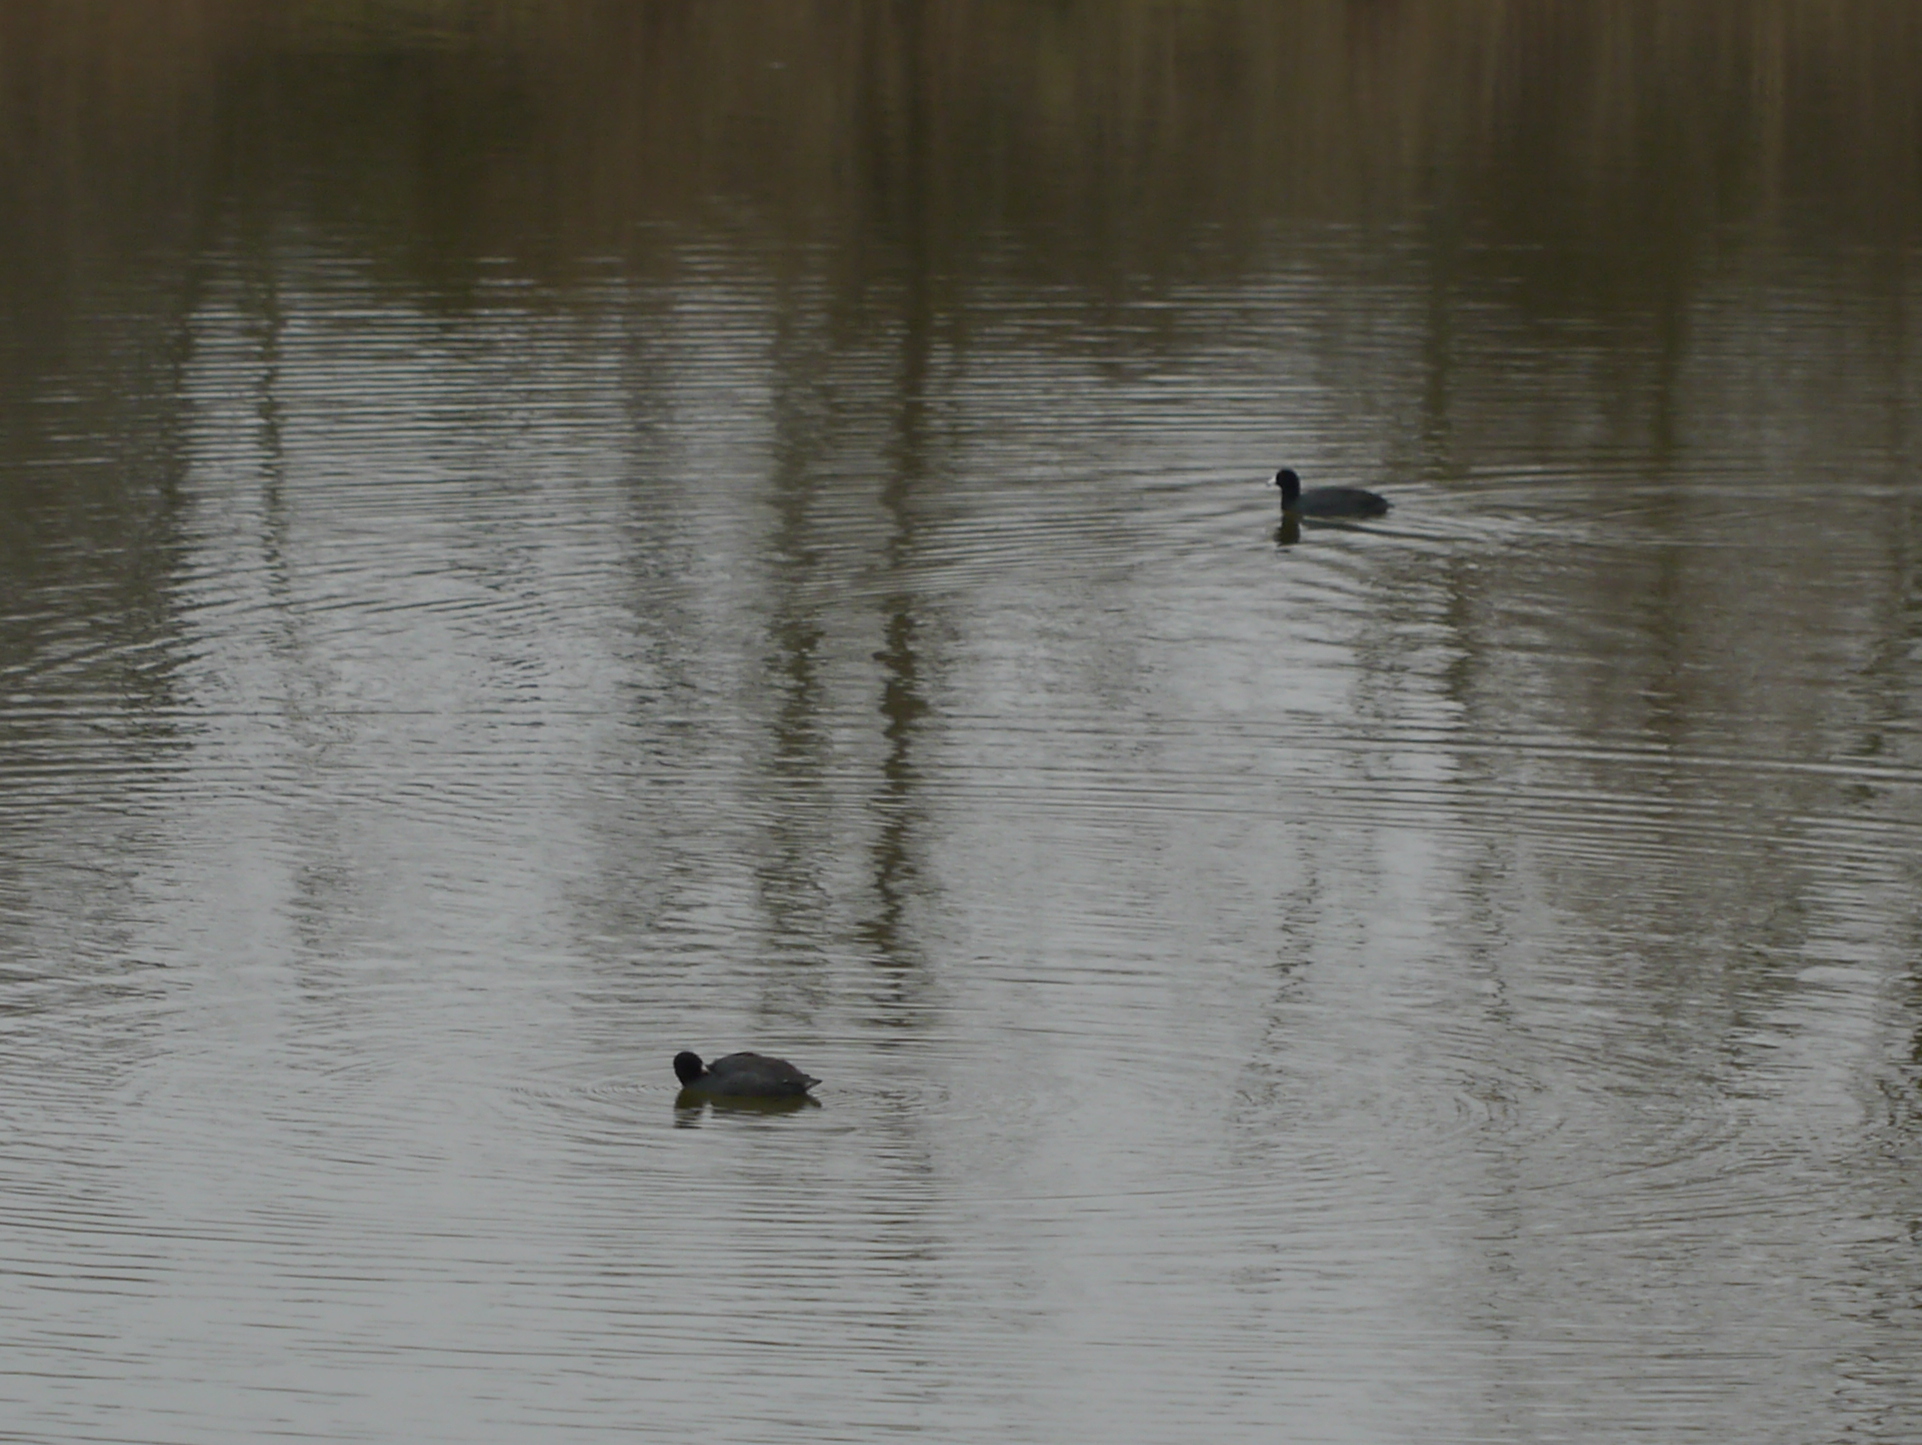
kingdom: Animalia
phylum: Chordata
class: Aves
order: Gruiformes
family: Rallidae
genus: Fulica
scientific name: Fulica americana
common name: American coot
